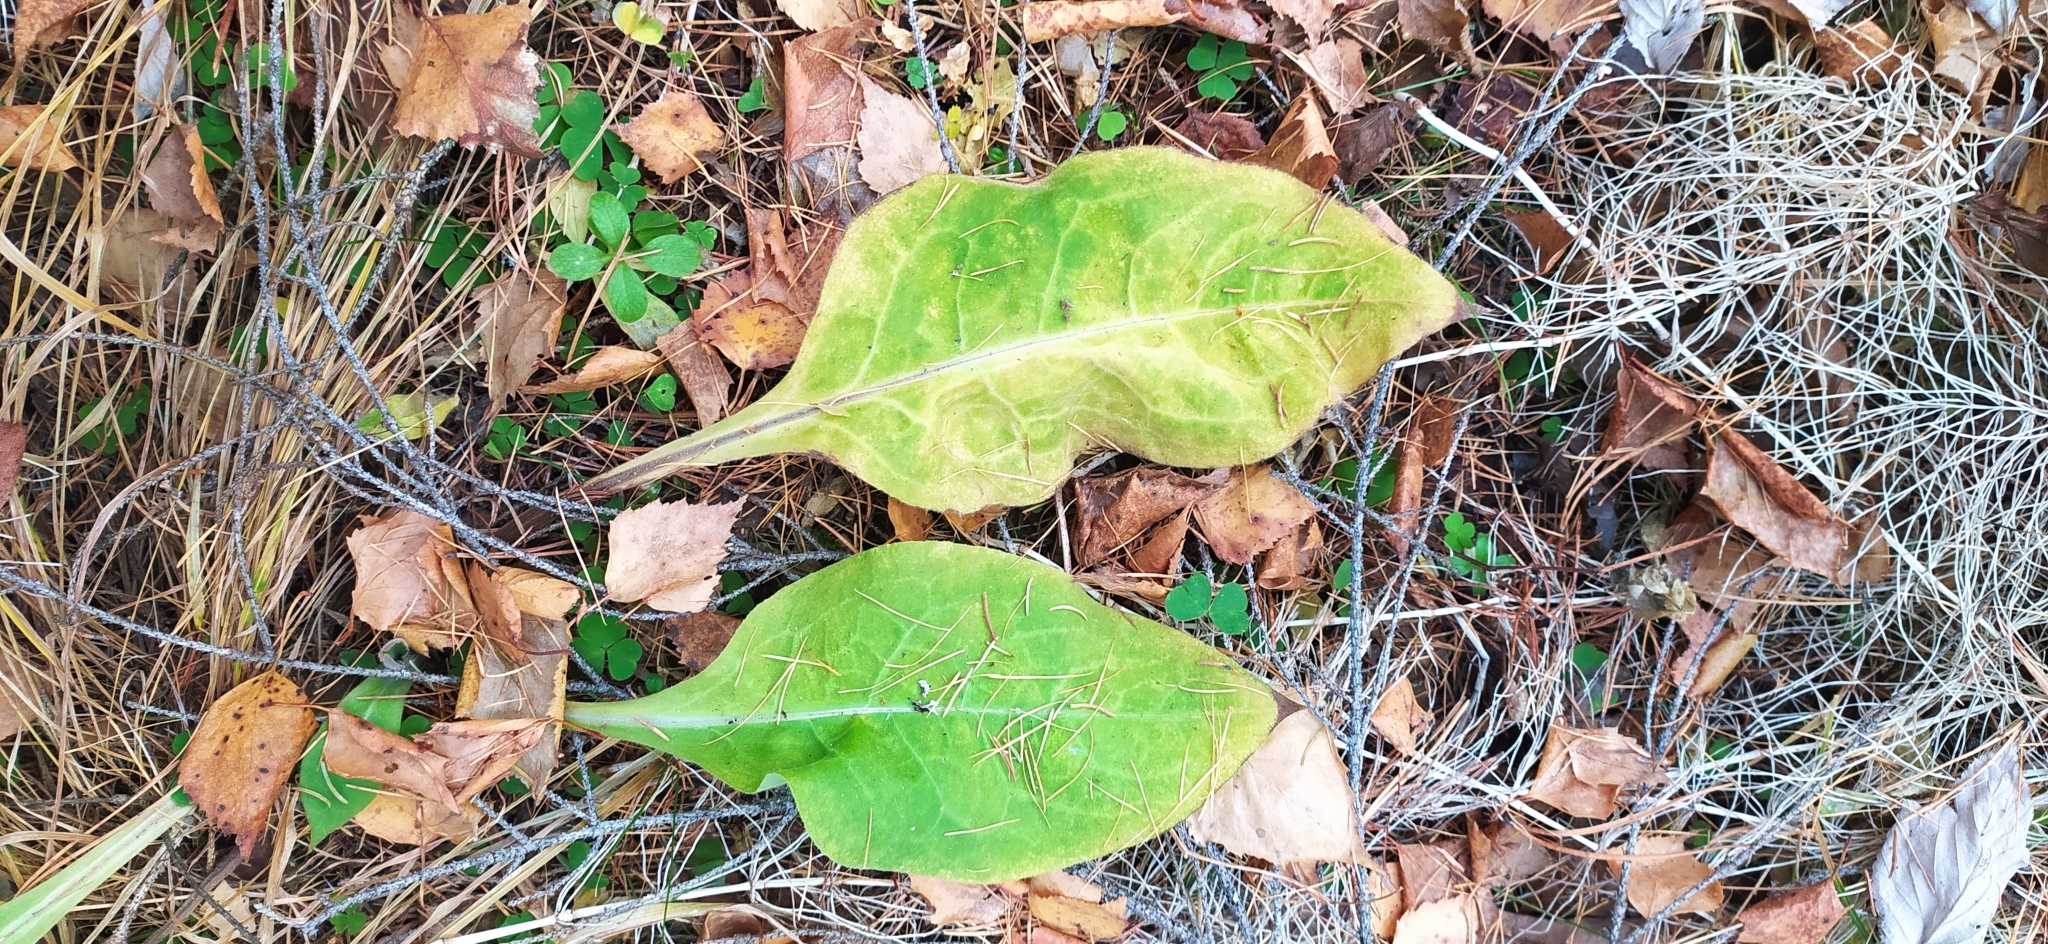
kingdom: Plantae
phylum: Tracheophyta
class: Magnoliopsida
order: Boraginales
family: Boraginaceae
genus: Pulmonaria
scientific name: Pulmonaria mollis
